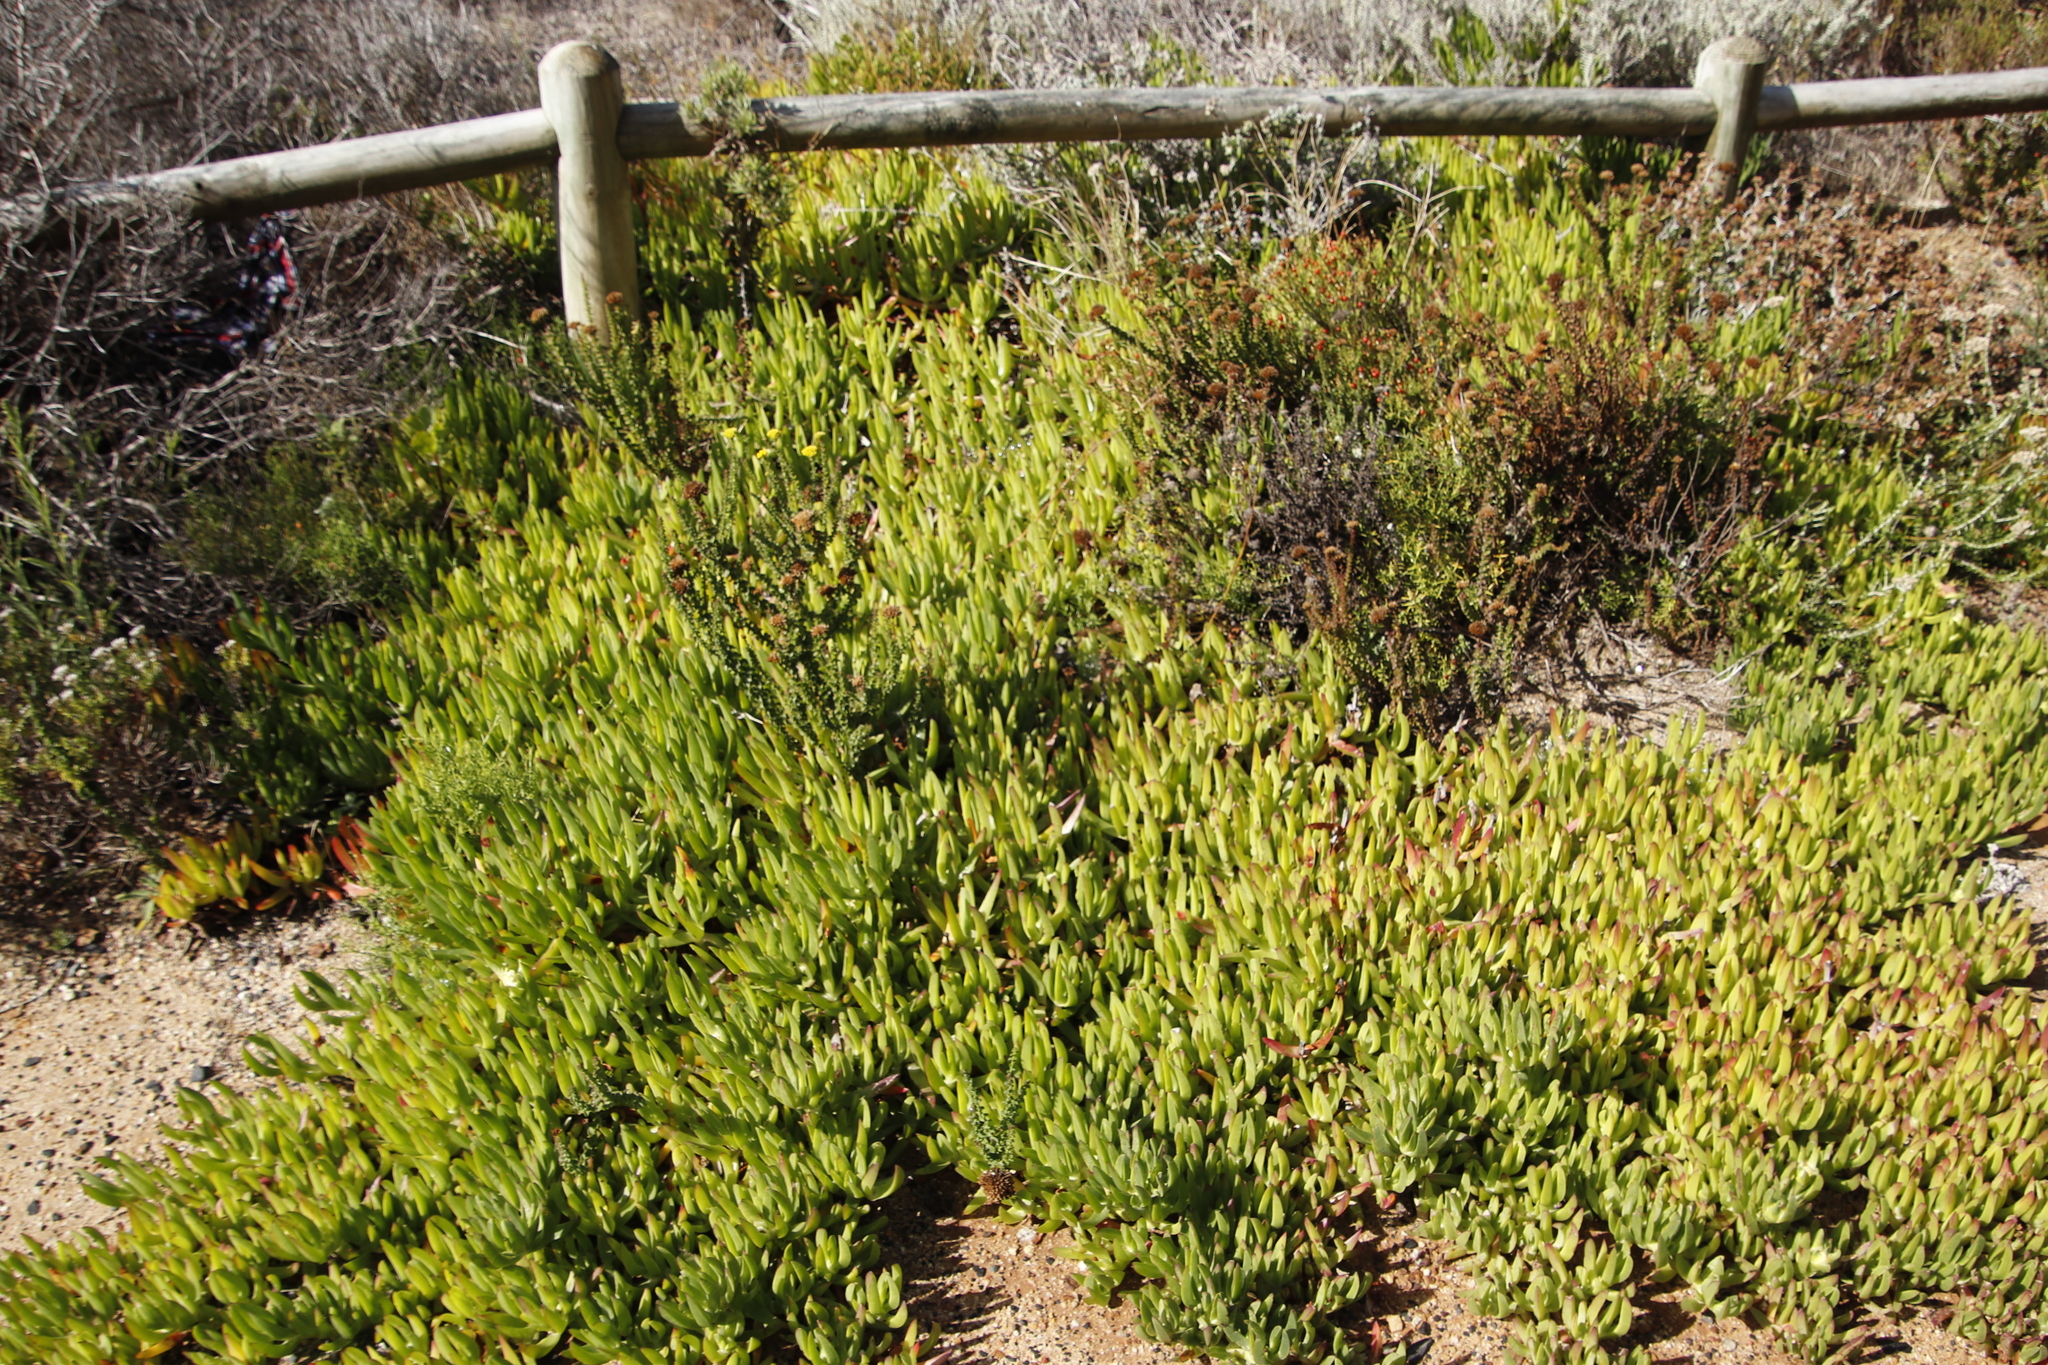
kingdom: Plantae
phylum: Tracheophyta
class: Magnoliopsida
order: Caryophyllales
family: Aizoaceae
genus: Carpobrotus
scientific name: Carpobrotus edulis
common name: Hottentot-fig
